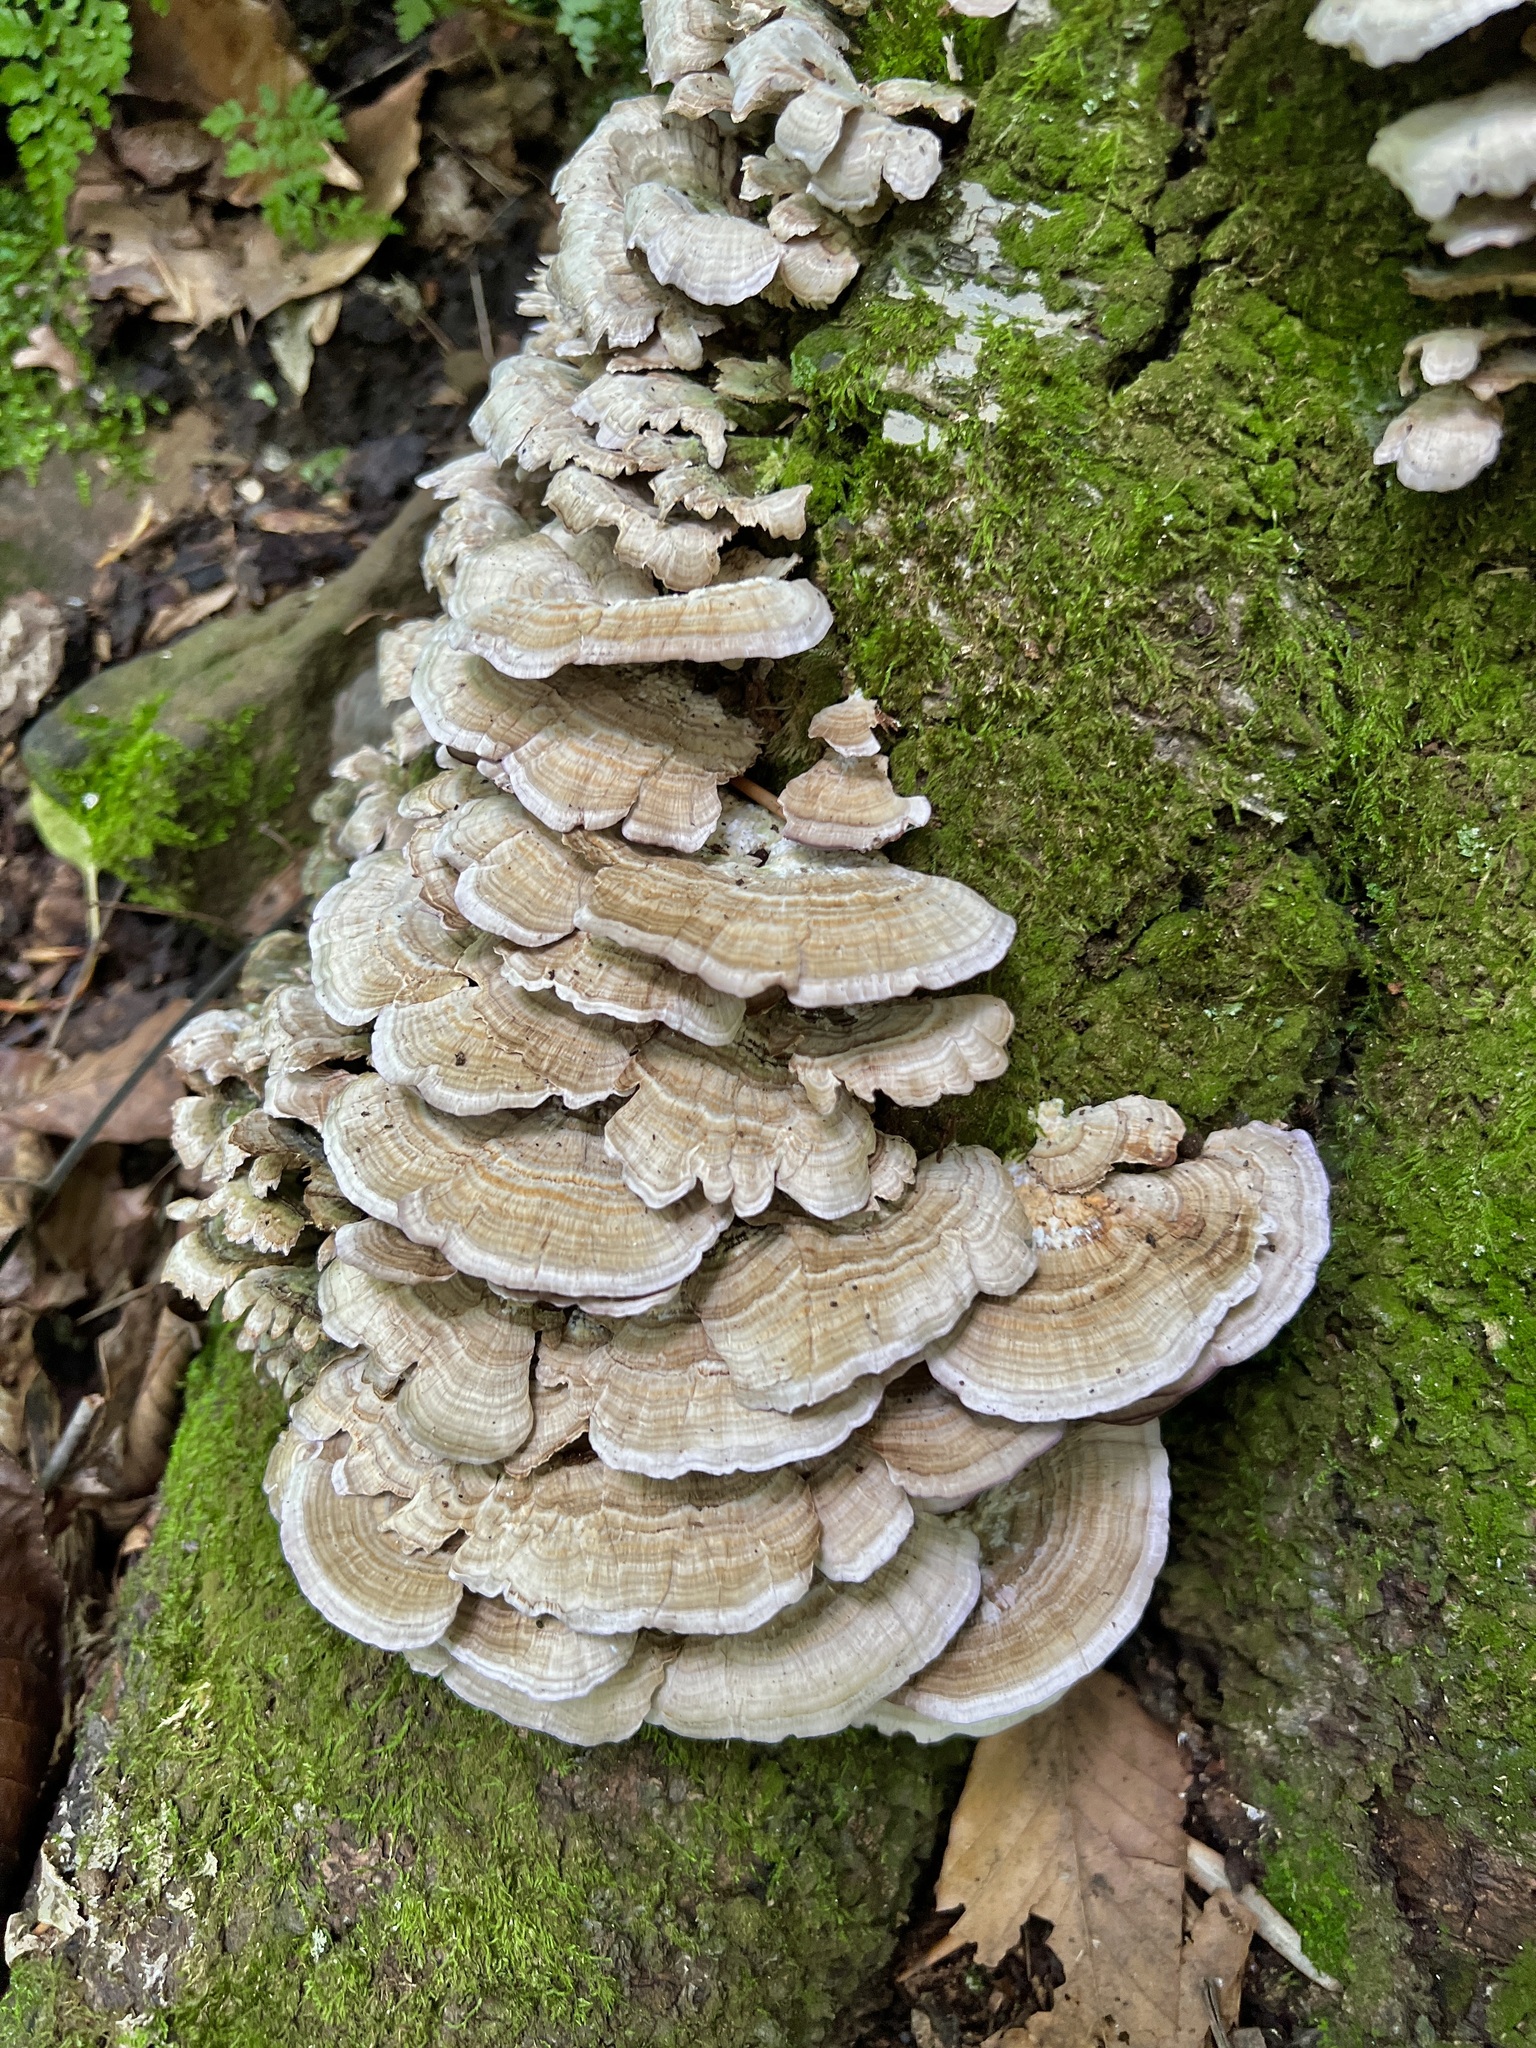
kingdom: Fungi
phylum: Basidiomycota
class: Agaricomycetes
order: Hymenochaetales
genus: Trichaptum
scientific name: Trichaptum biforme
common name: Violet-toothed polypore
